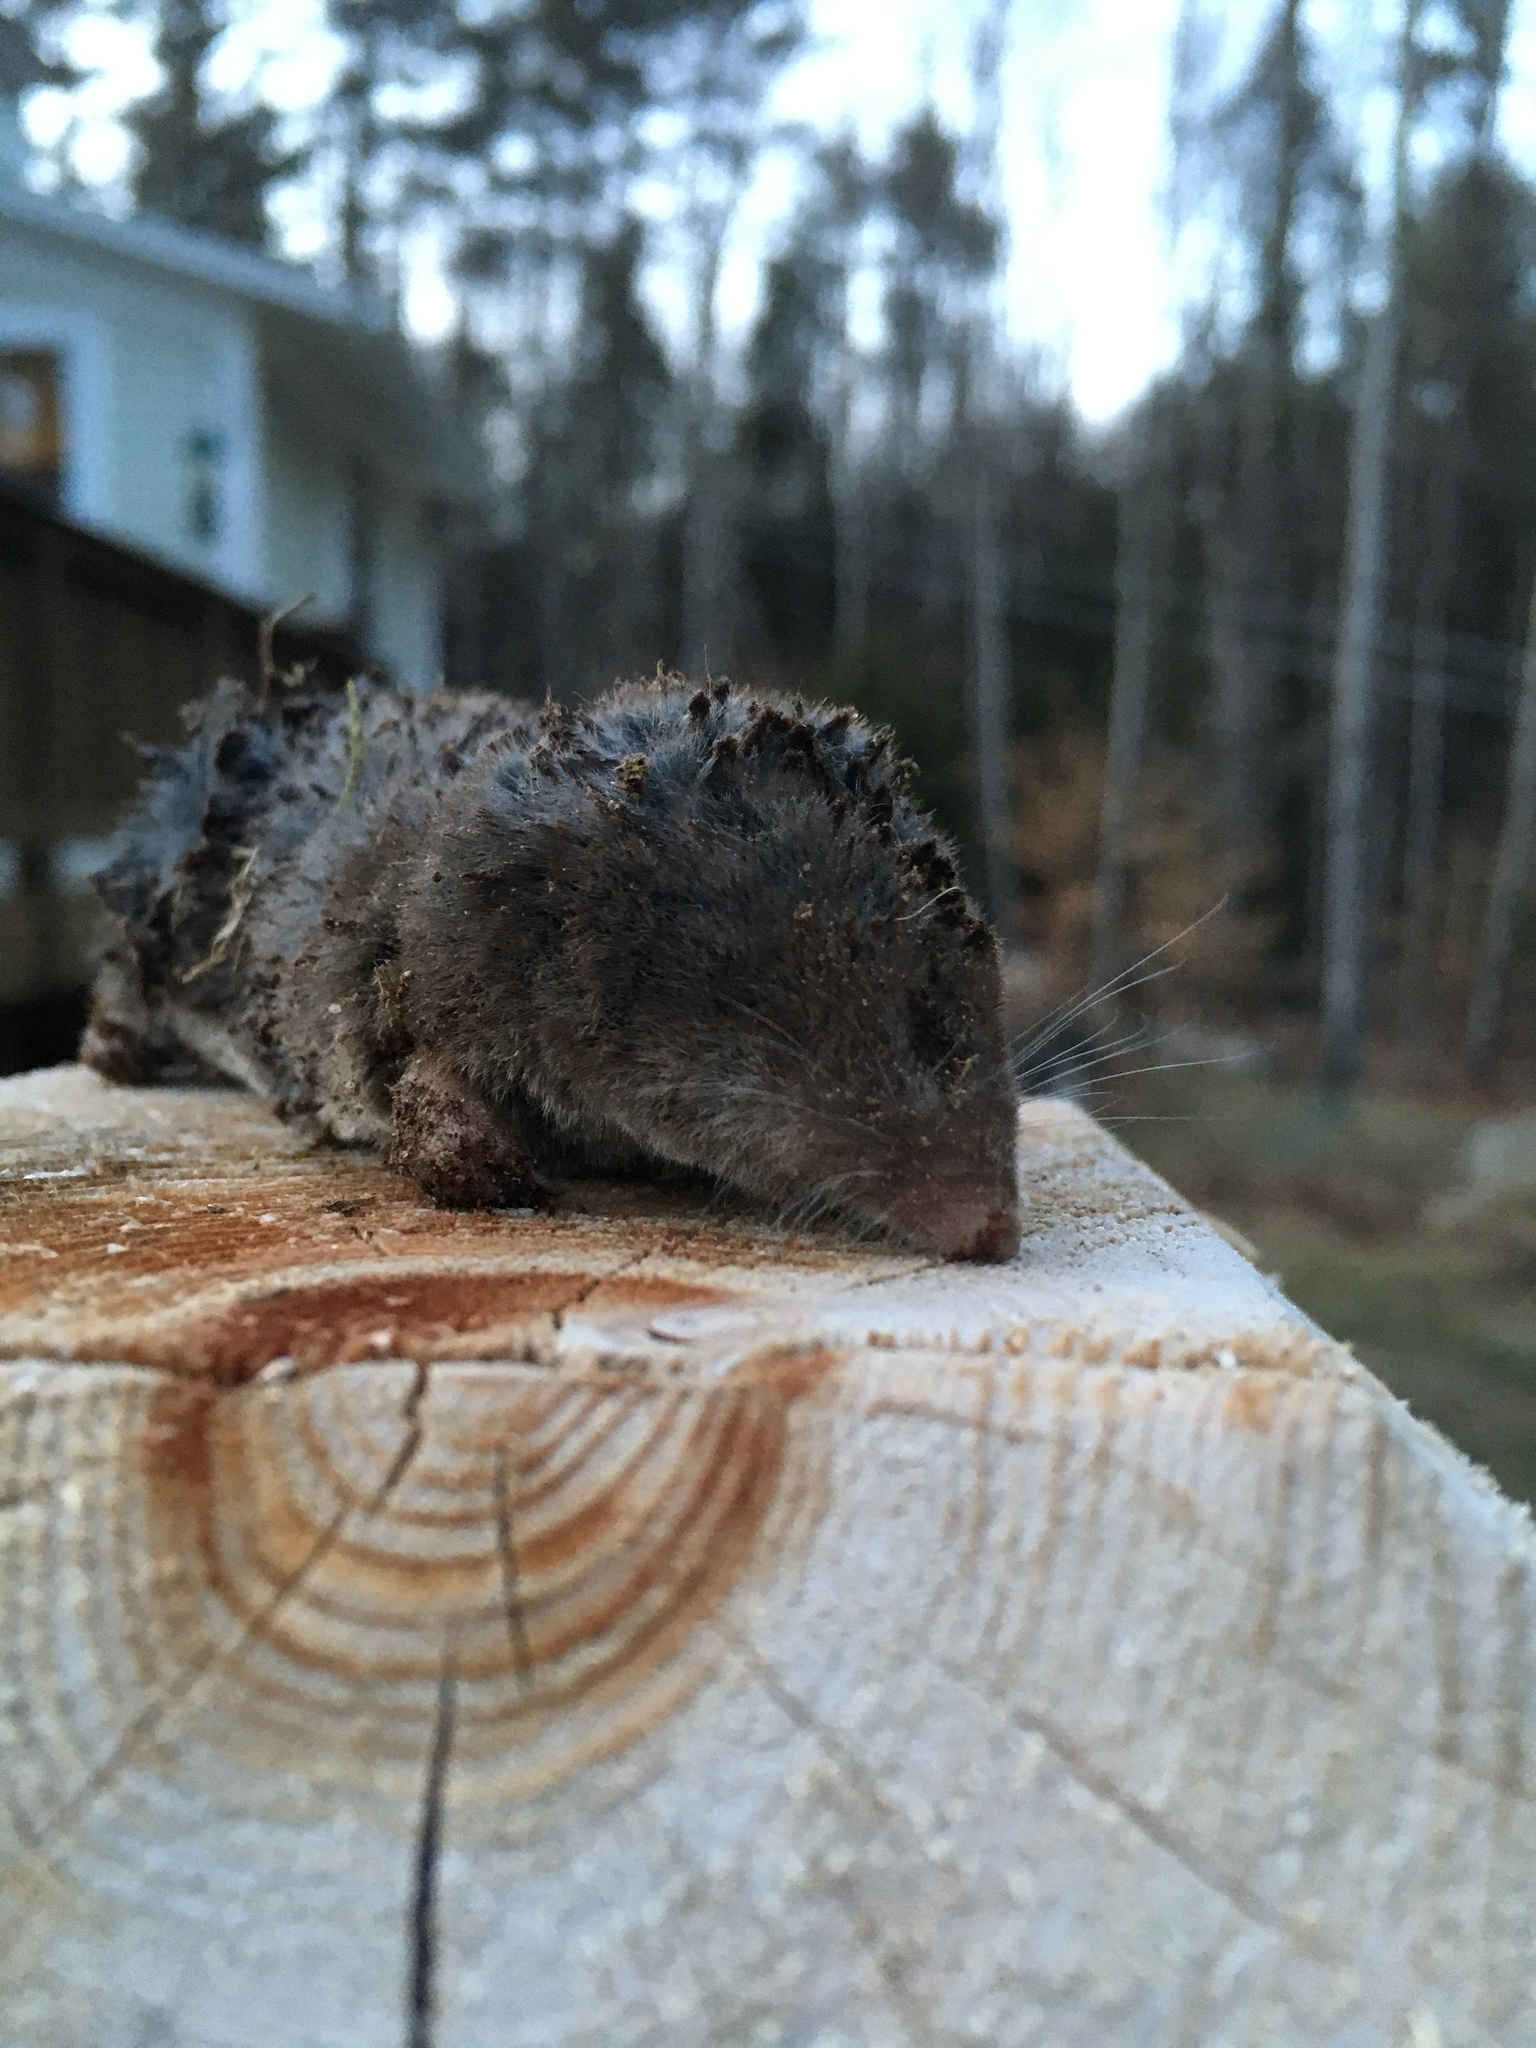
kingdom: Animalia
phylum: Chordata
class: Mammalia
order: Soricomorpha
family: Soricidae
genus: Blarina
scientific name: Blarina brevicauda
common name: Northern short-tailed shrew
